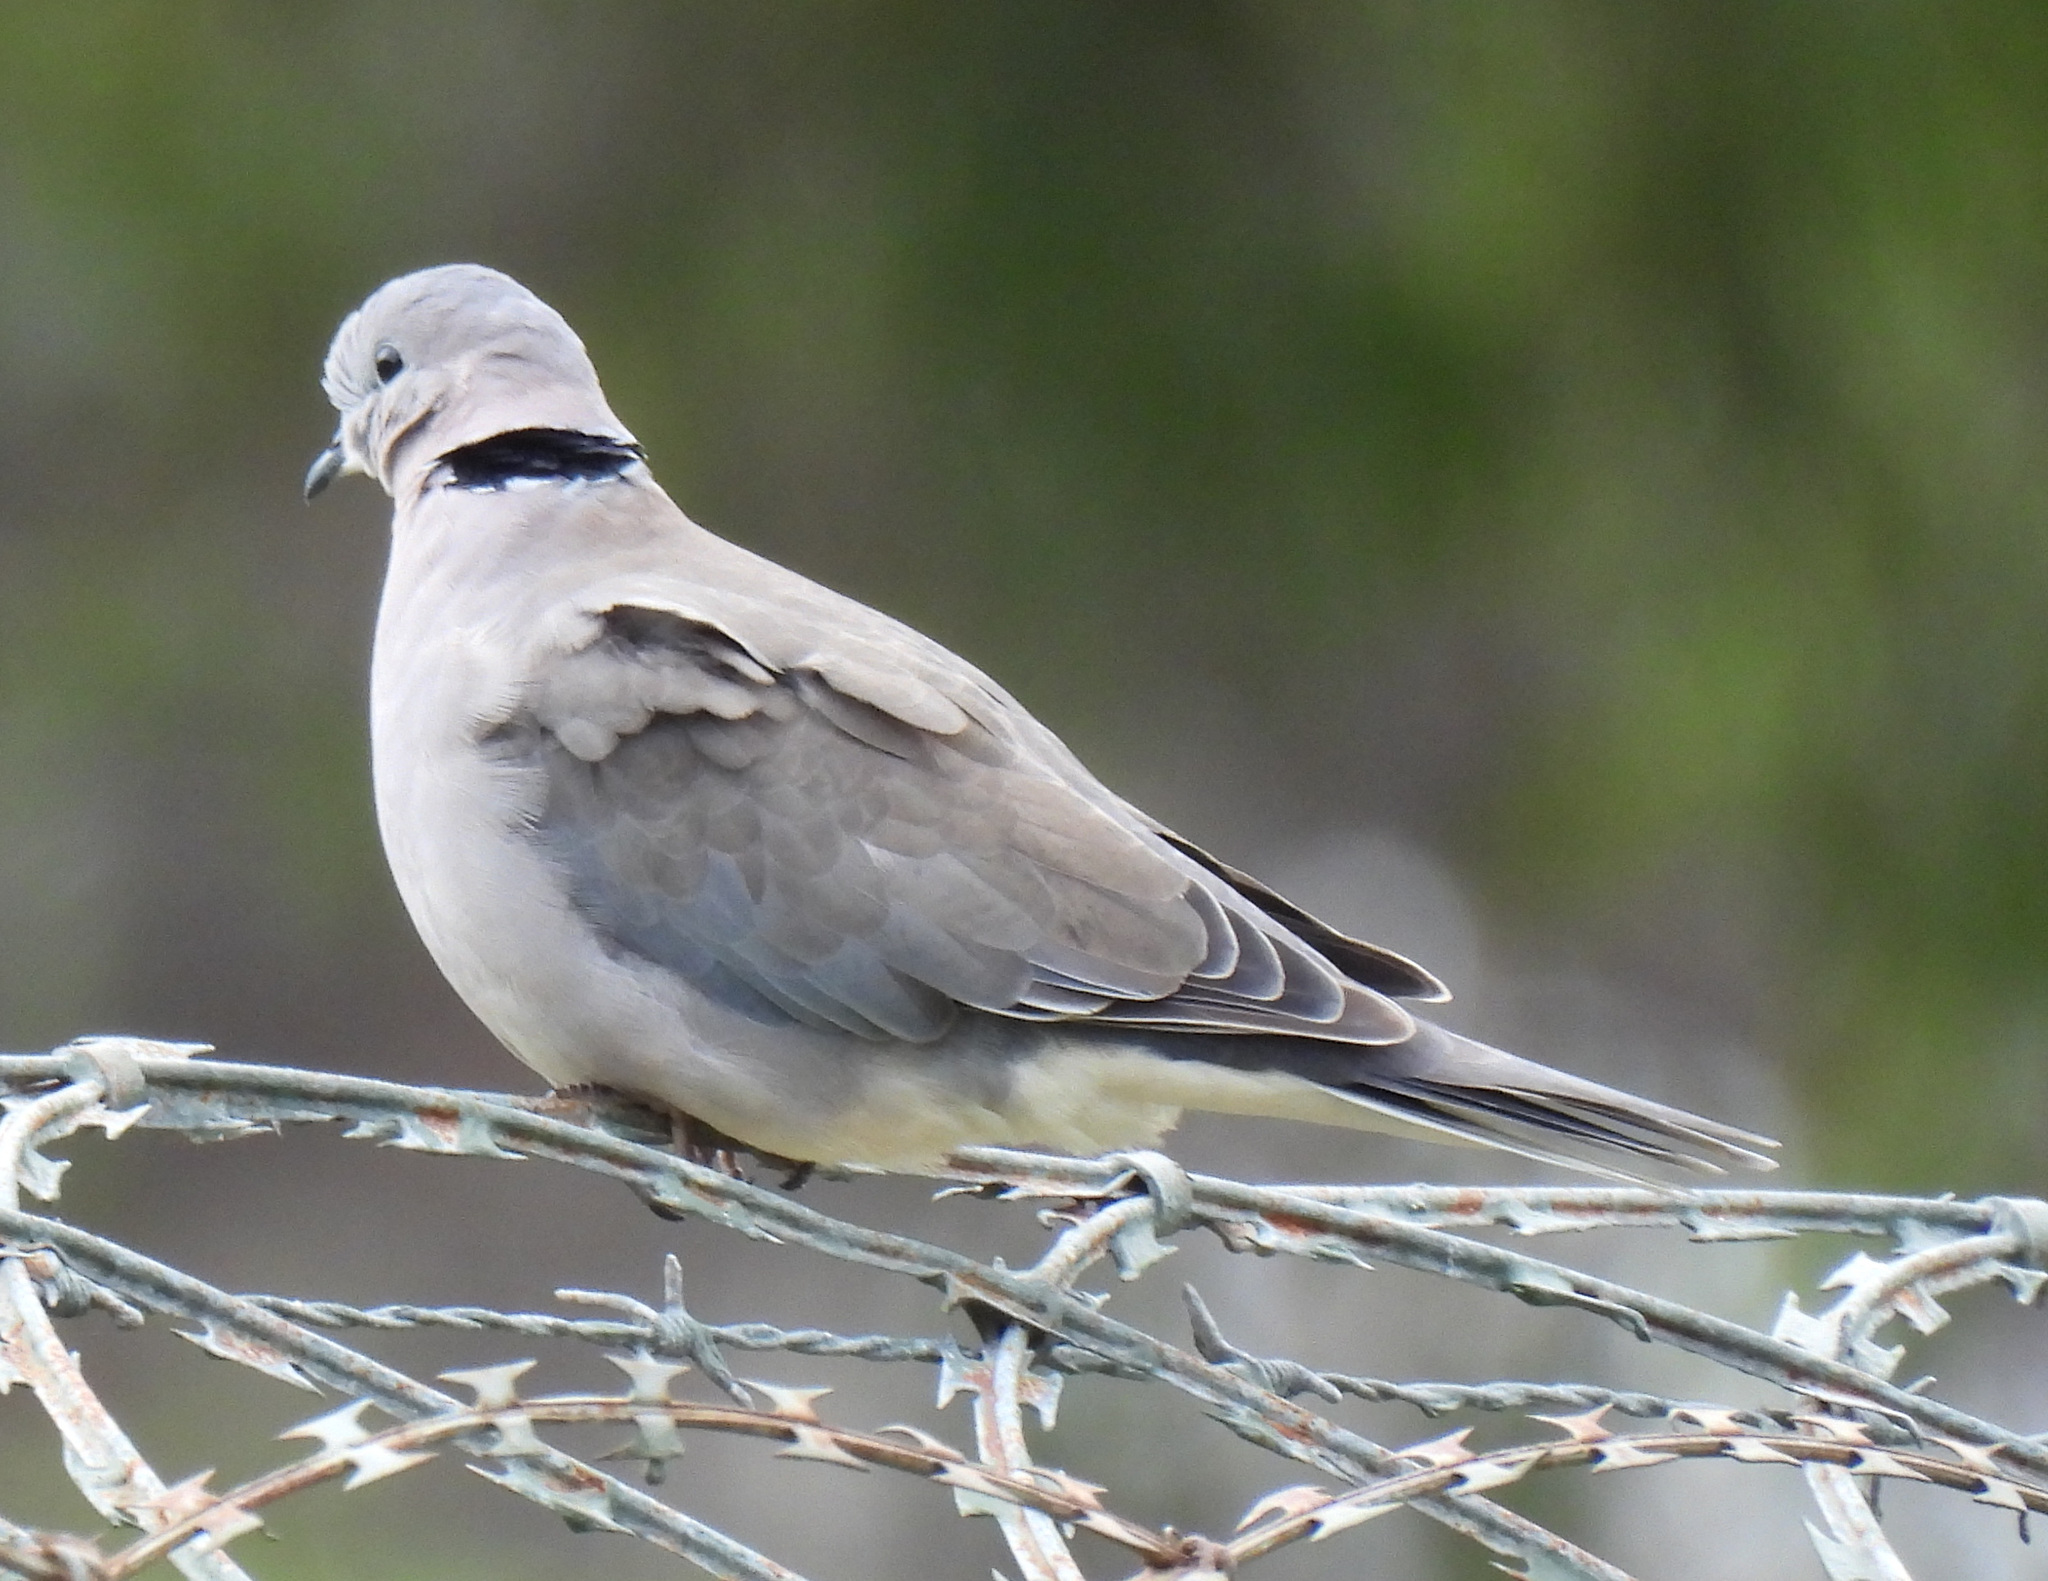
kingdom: Animalia
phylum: Chordata
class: Aves
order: Columbiformes
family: Columbidae
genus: Streptopelia
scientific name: Streptopelia capicola
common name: Ring-necked dove
